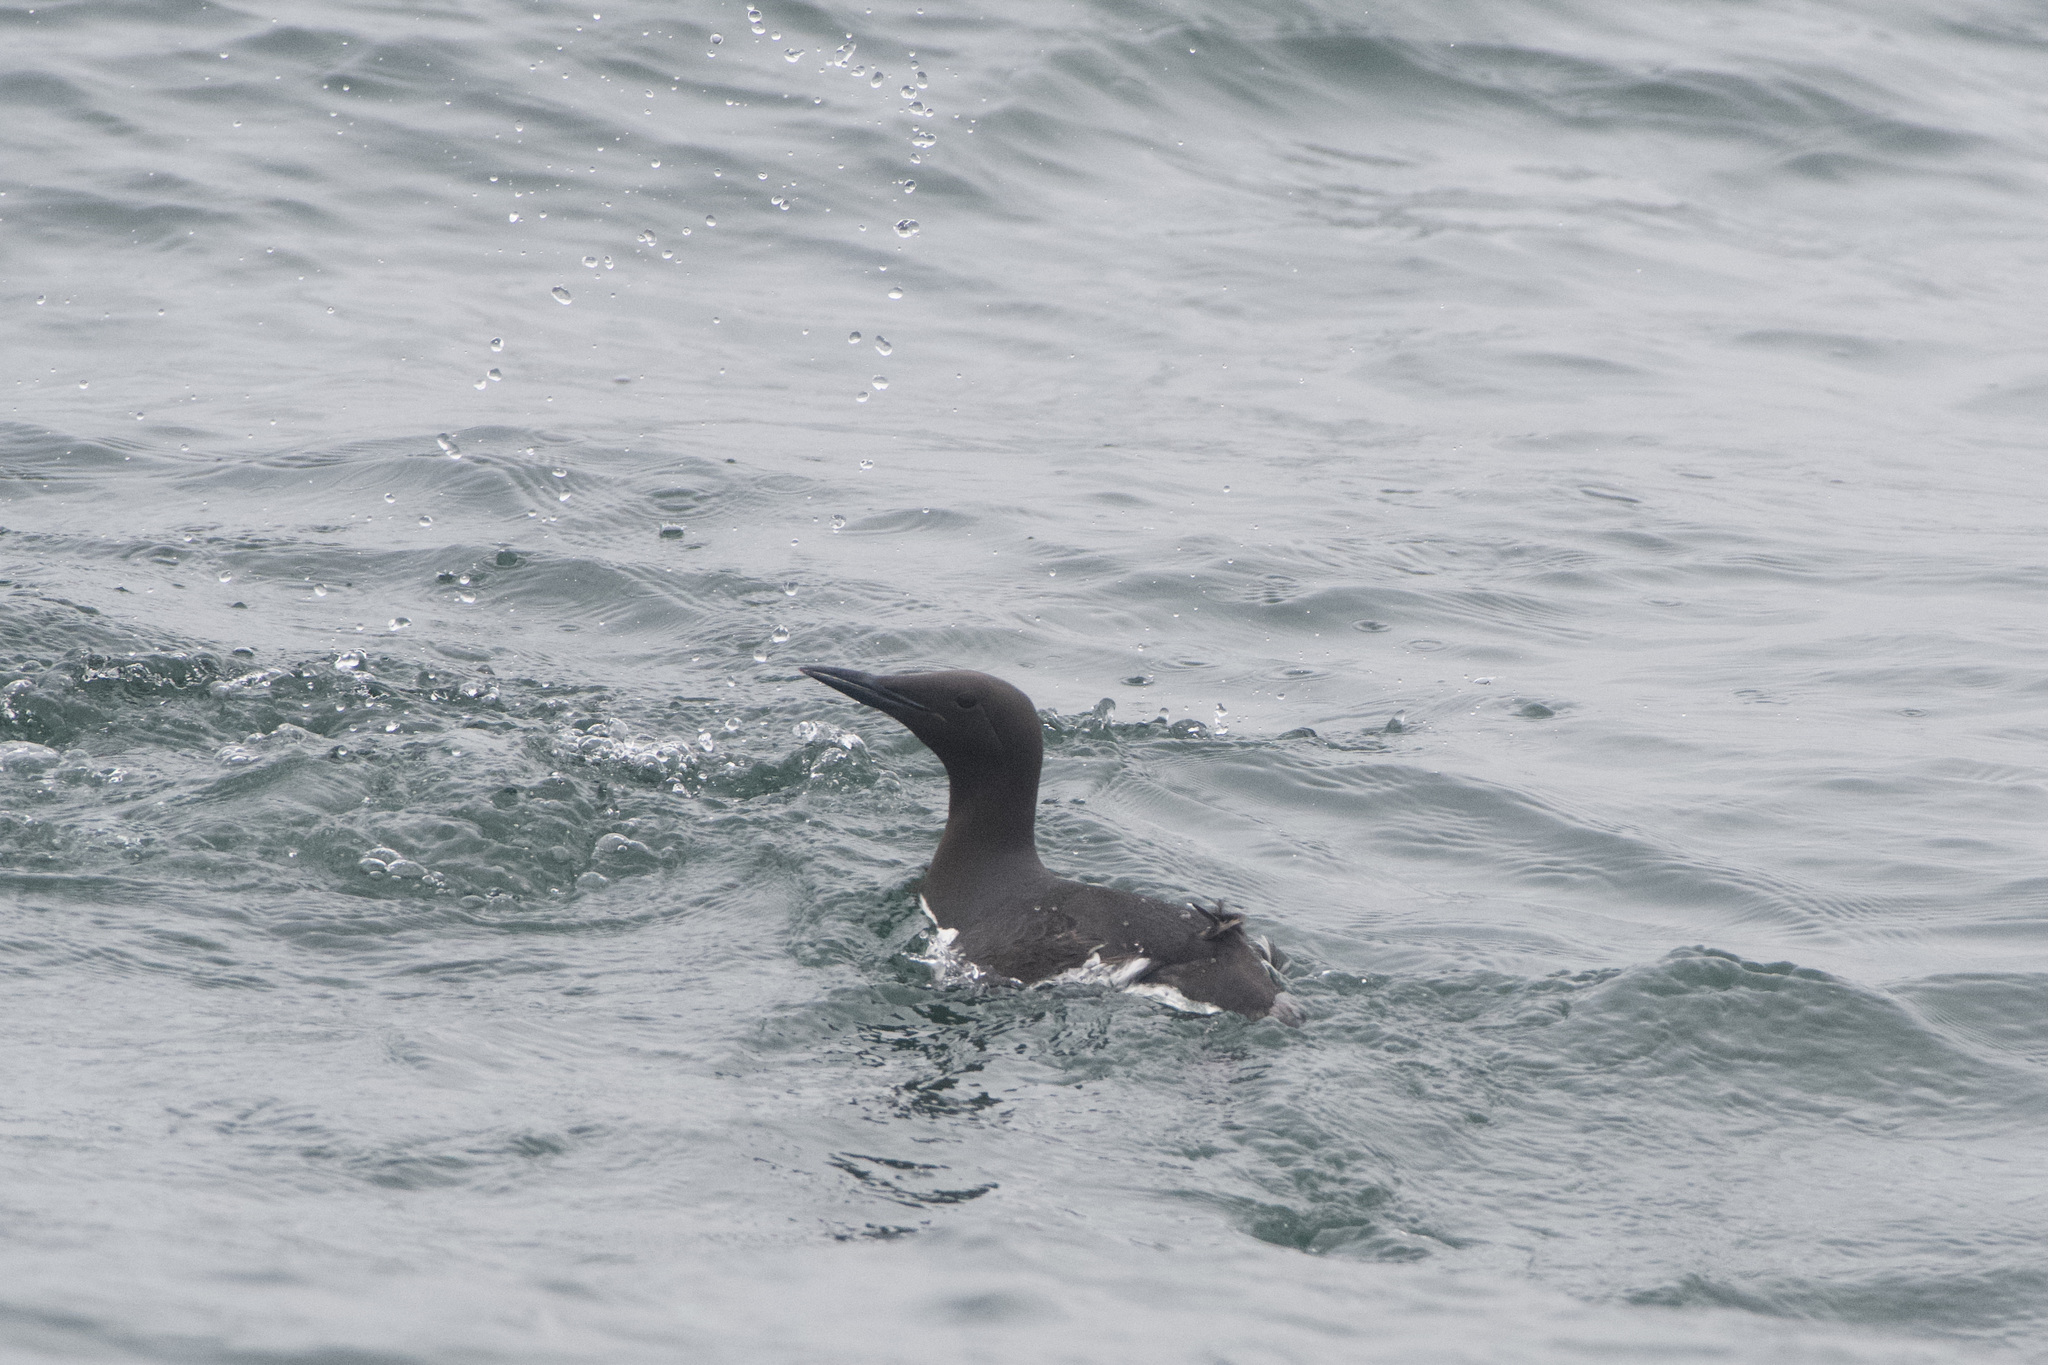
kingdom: Animalia
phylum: Chordata
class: Aves
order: Charadriiformes
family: Alcidae
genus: Uria
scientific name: Uria aalge
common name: Common murre
